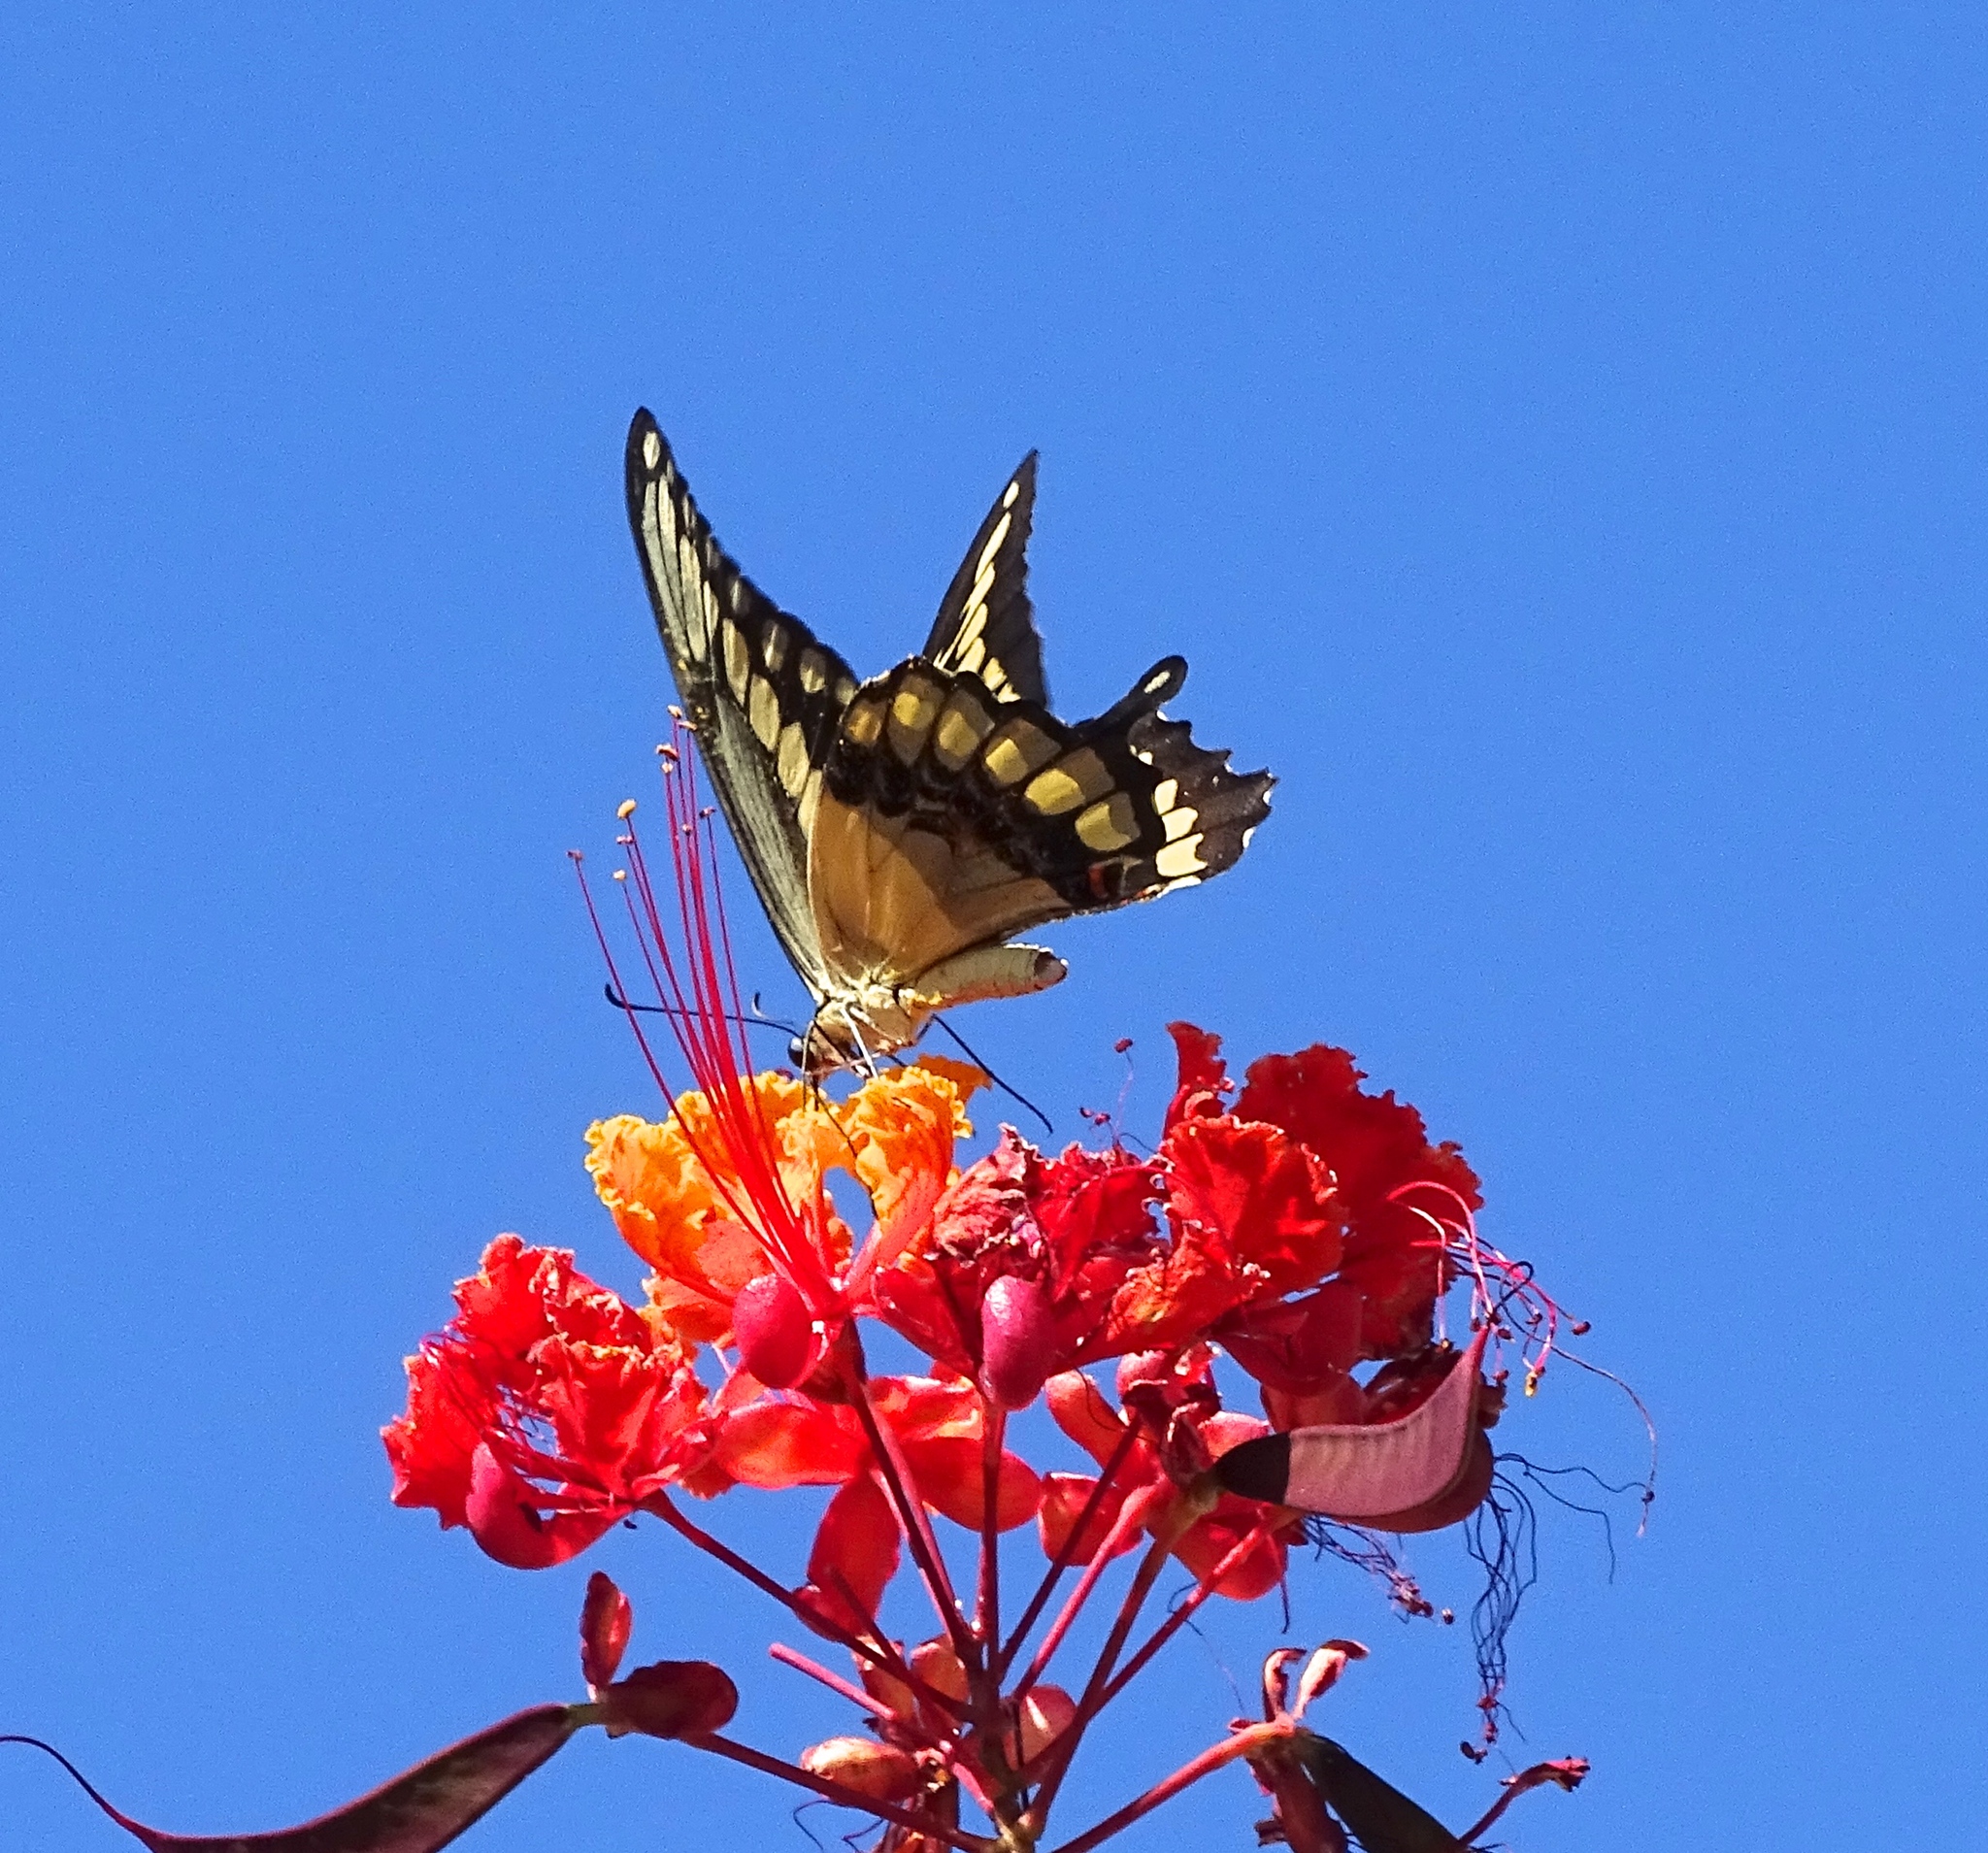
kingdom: Animalia
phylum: Arthropoda
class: Insecta
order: Lepidoptera
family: Papilionidae
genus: Papilio
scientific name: Papilio rumiko
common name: Western giant swallowtail
